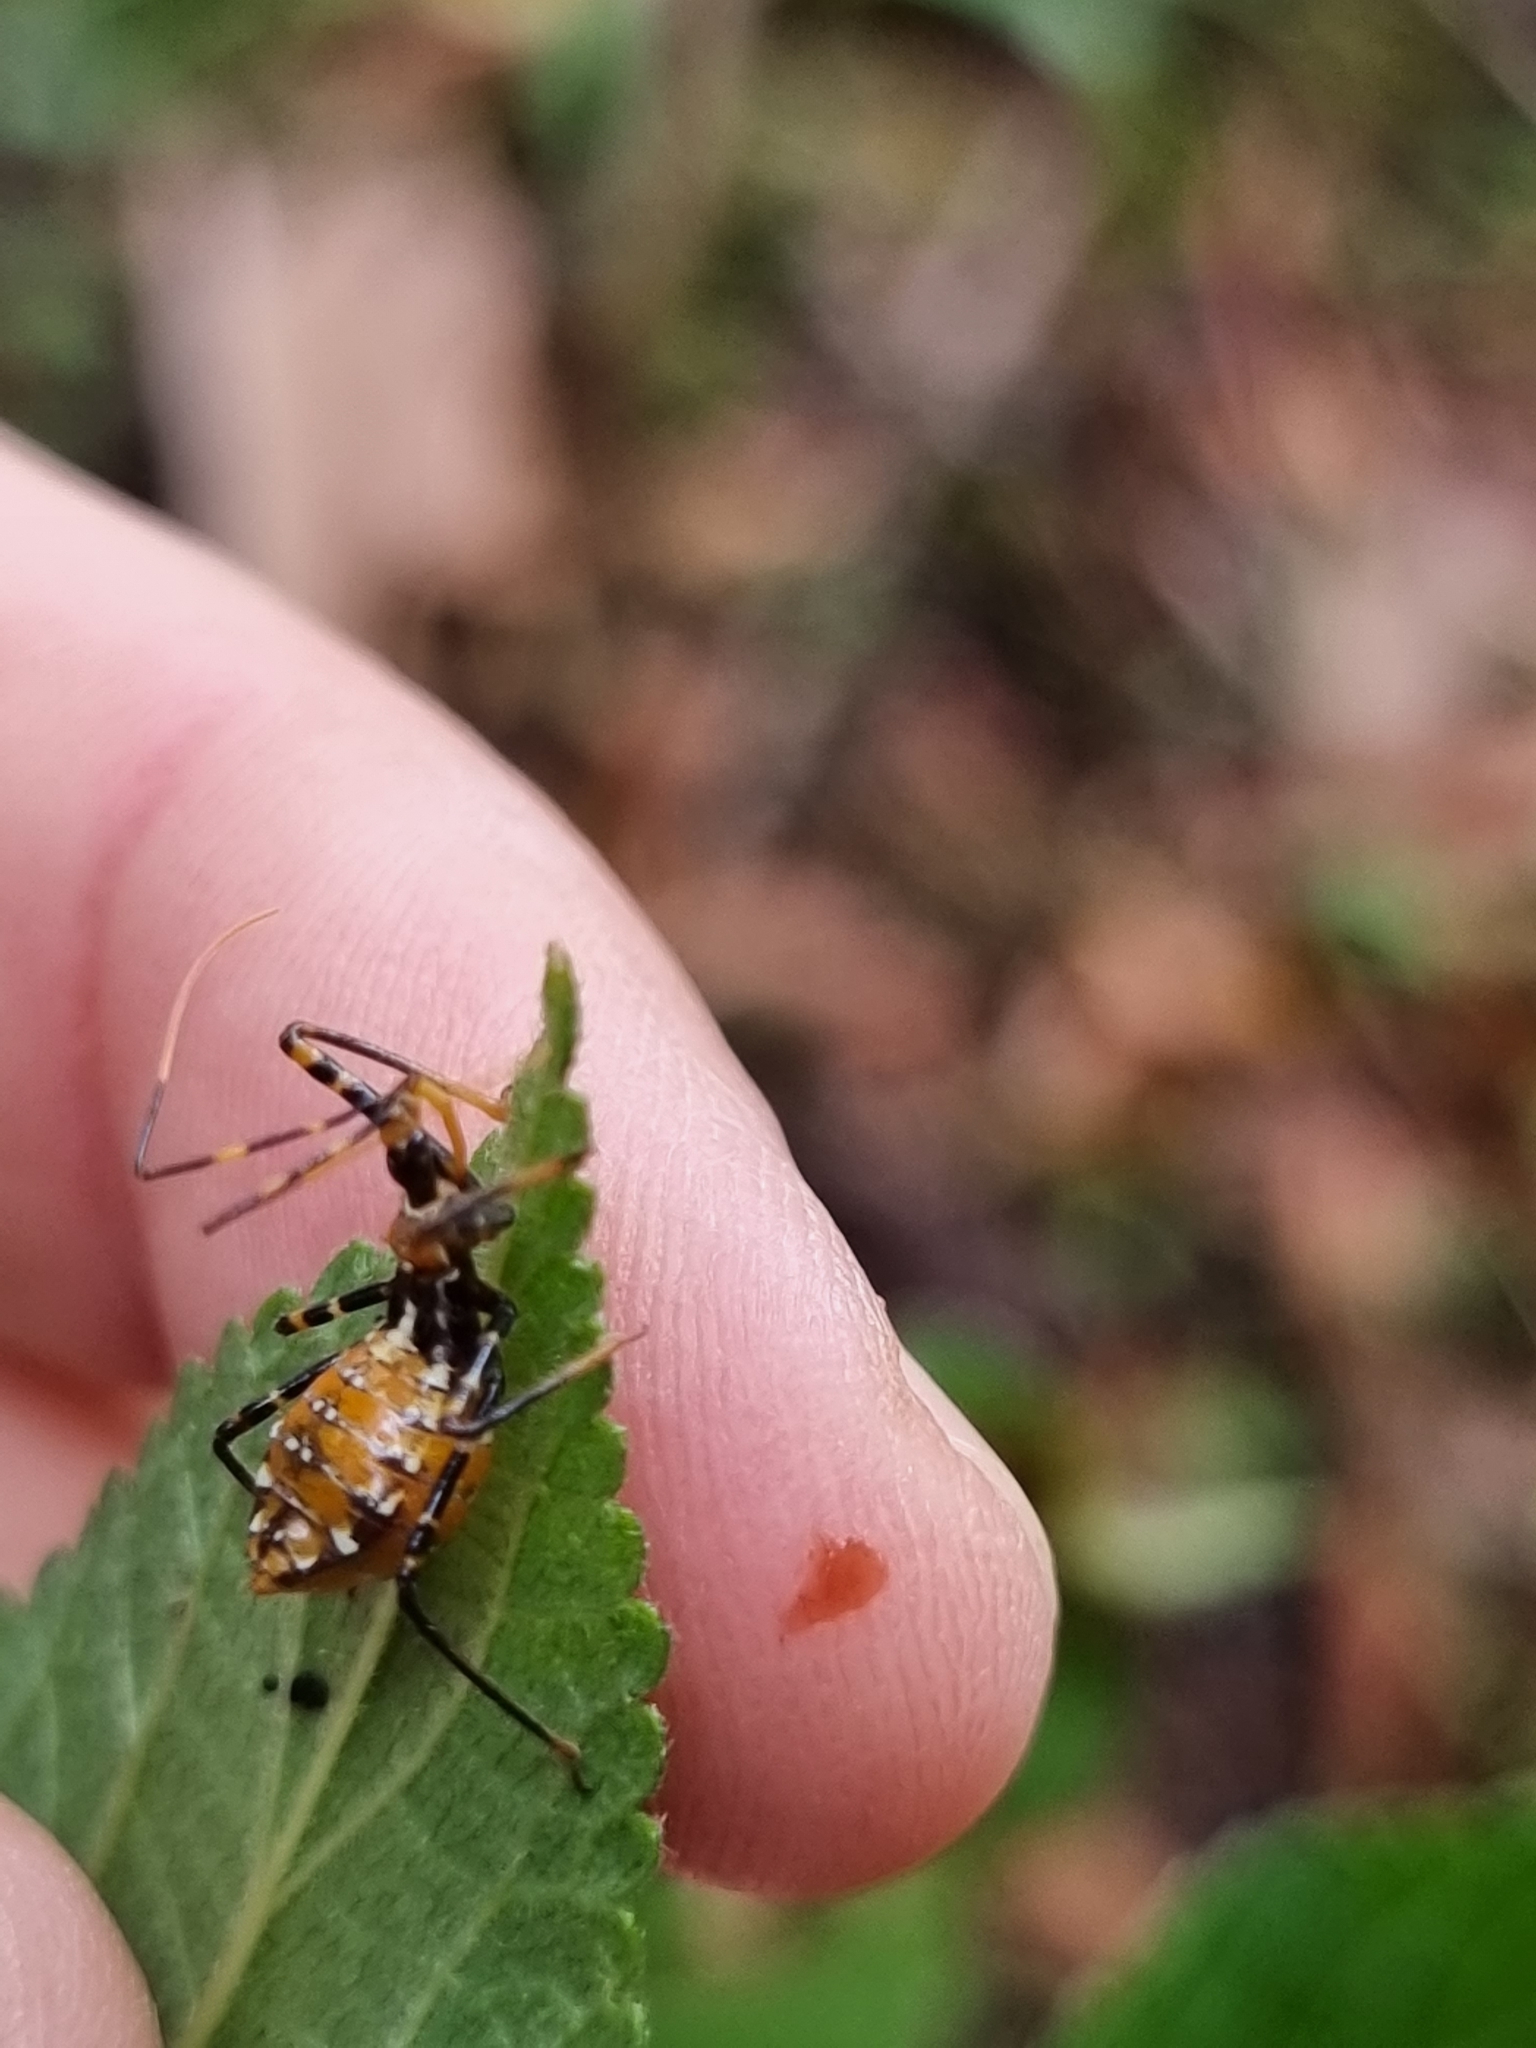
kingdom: Animalia
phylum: Arthropoda
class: Insecta
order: Hemiptera
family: Reduviidae
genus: Pristhesancus
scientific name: Pristhesancus plagipennis
